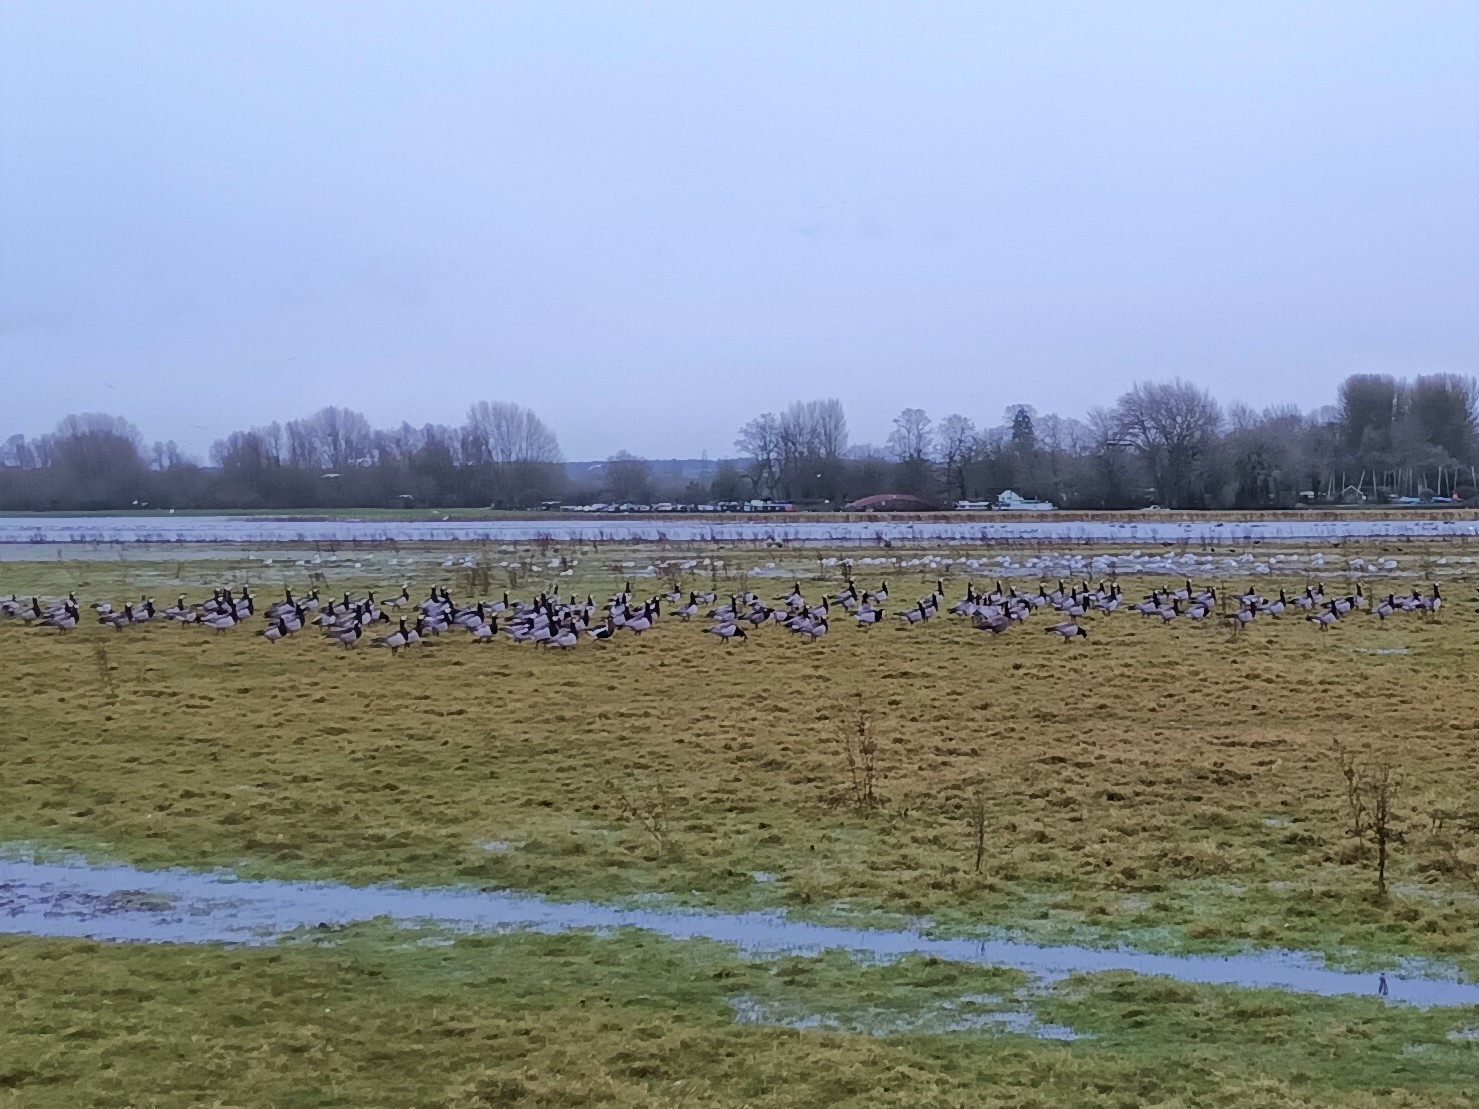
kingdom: Animalia
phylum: Chordata
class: Aves
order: Anseriformes
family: Anatidae
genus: Branta
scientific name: Branta leucopsis
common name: Barnacle goose
